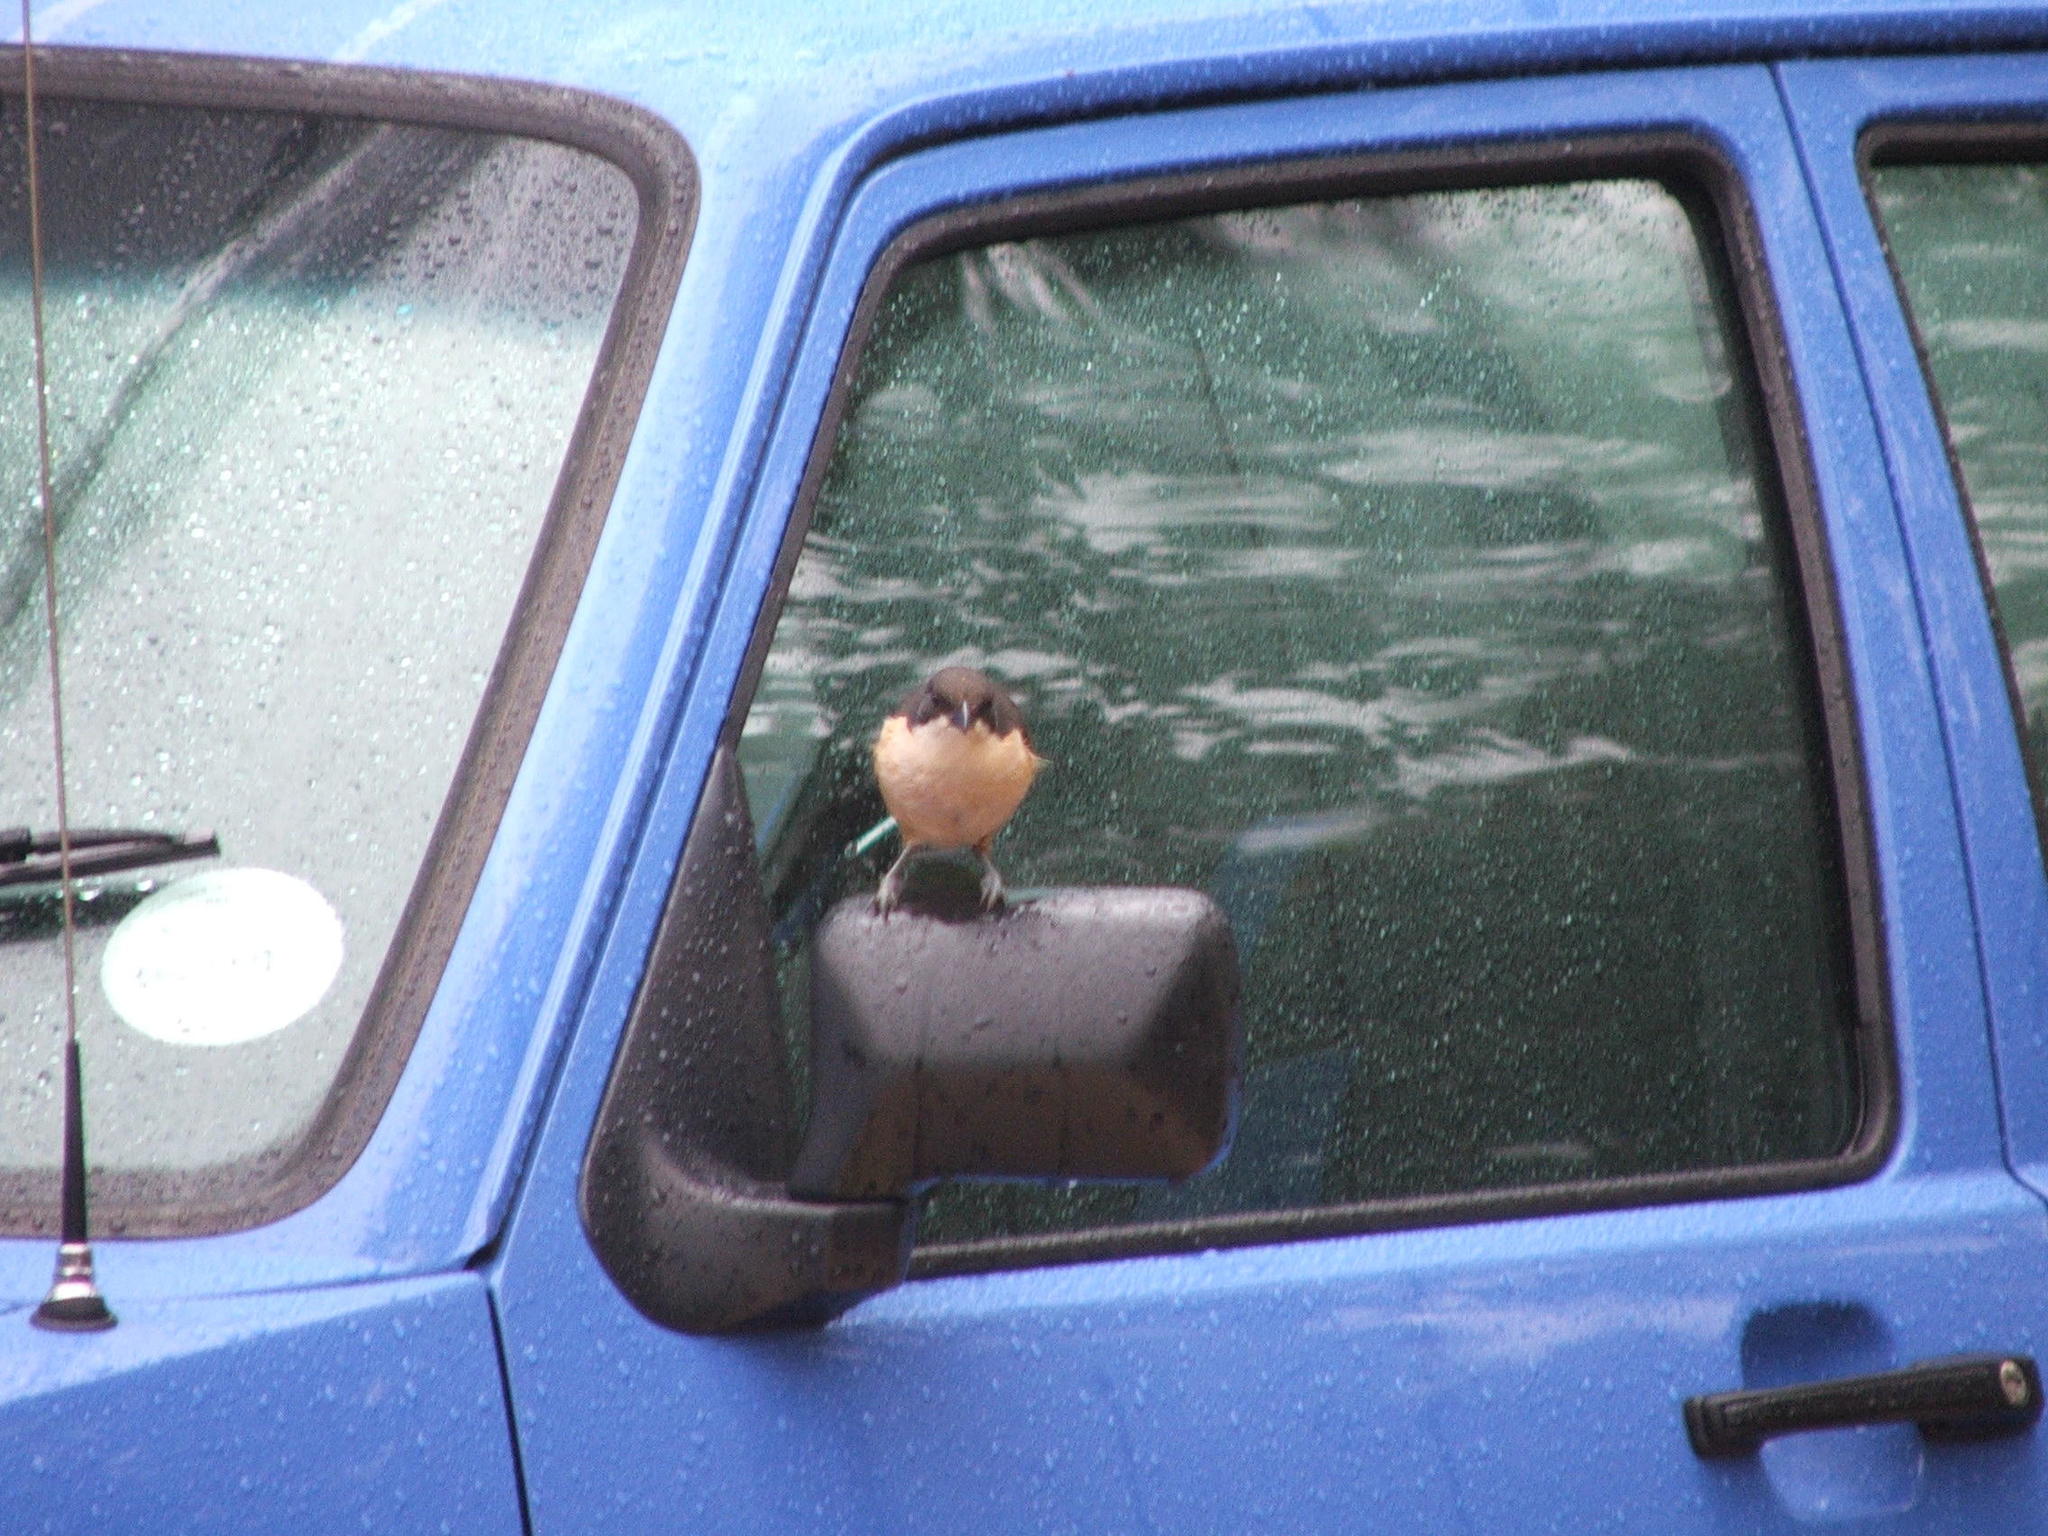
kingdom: Animalia
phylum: Chordata
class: Aves
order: Passeriformes
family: Malaconotidae
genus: Laniarius
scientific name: Laniarius ferrugineus
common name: Southern boubou
